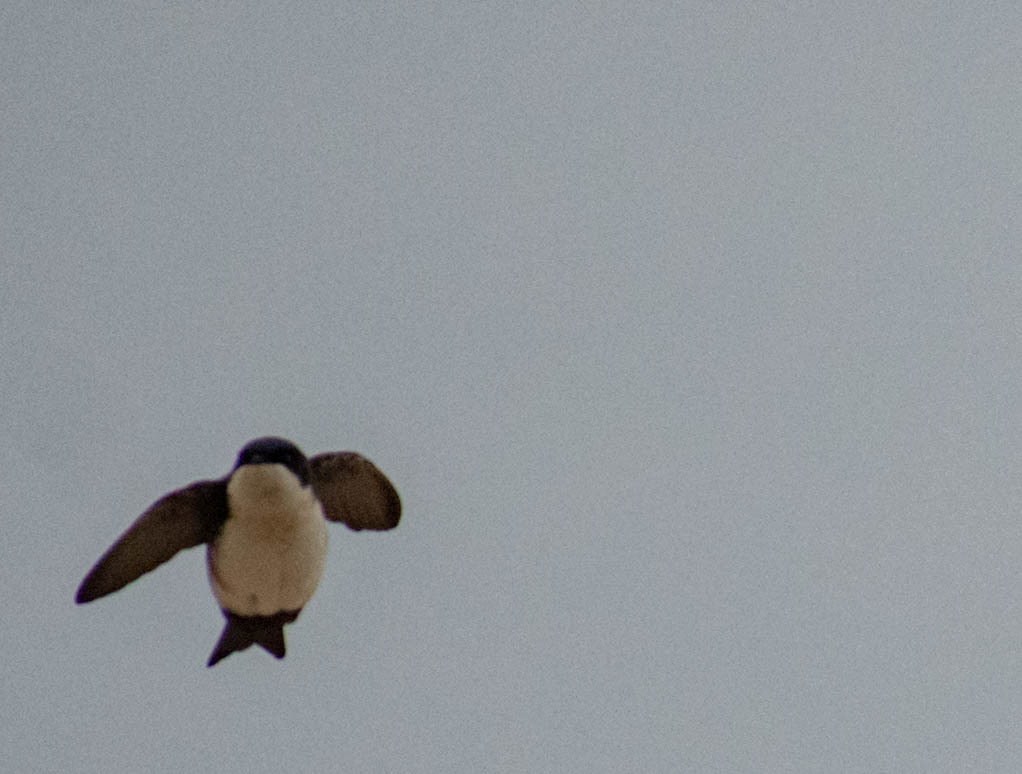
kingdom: Animalia
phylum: Chordata
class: Aves
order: Passeriformes
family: Hirundinidae
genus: Notiochelidon
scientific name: Notiochelidon cyanoleuca
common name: Blue-and-white swallow
